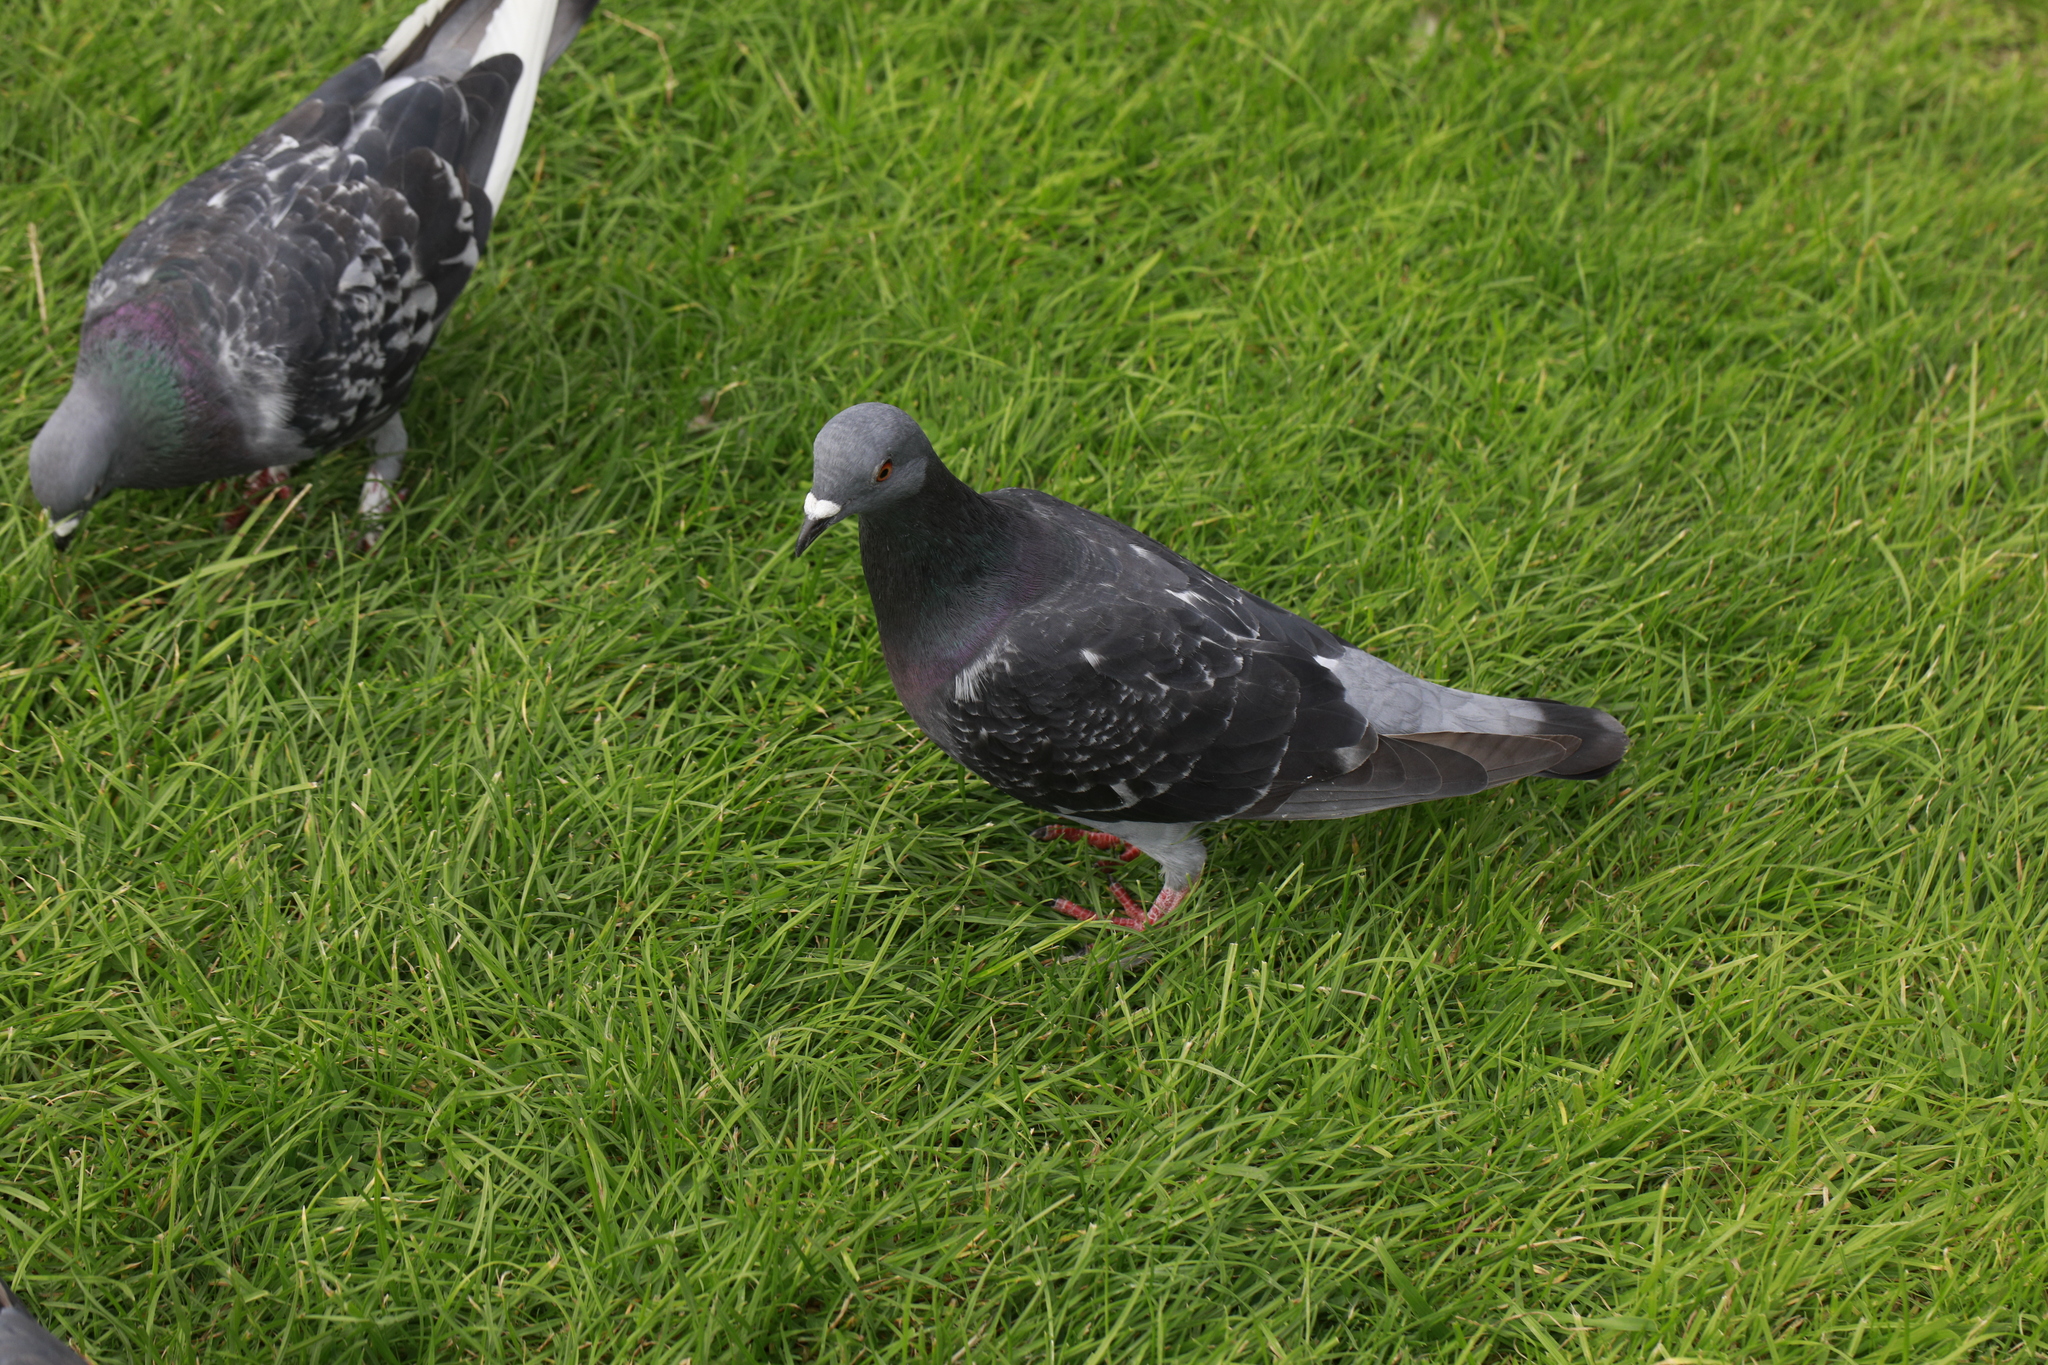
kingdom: Animalia
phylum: Chordata
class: Aves
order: Columbiformes
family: Columbidae
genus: Columba
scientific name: Columba livia
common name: Rock pigeon
